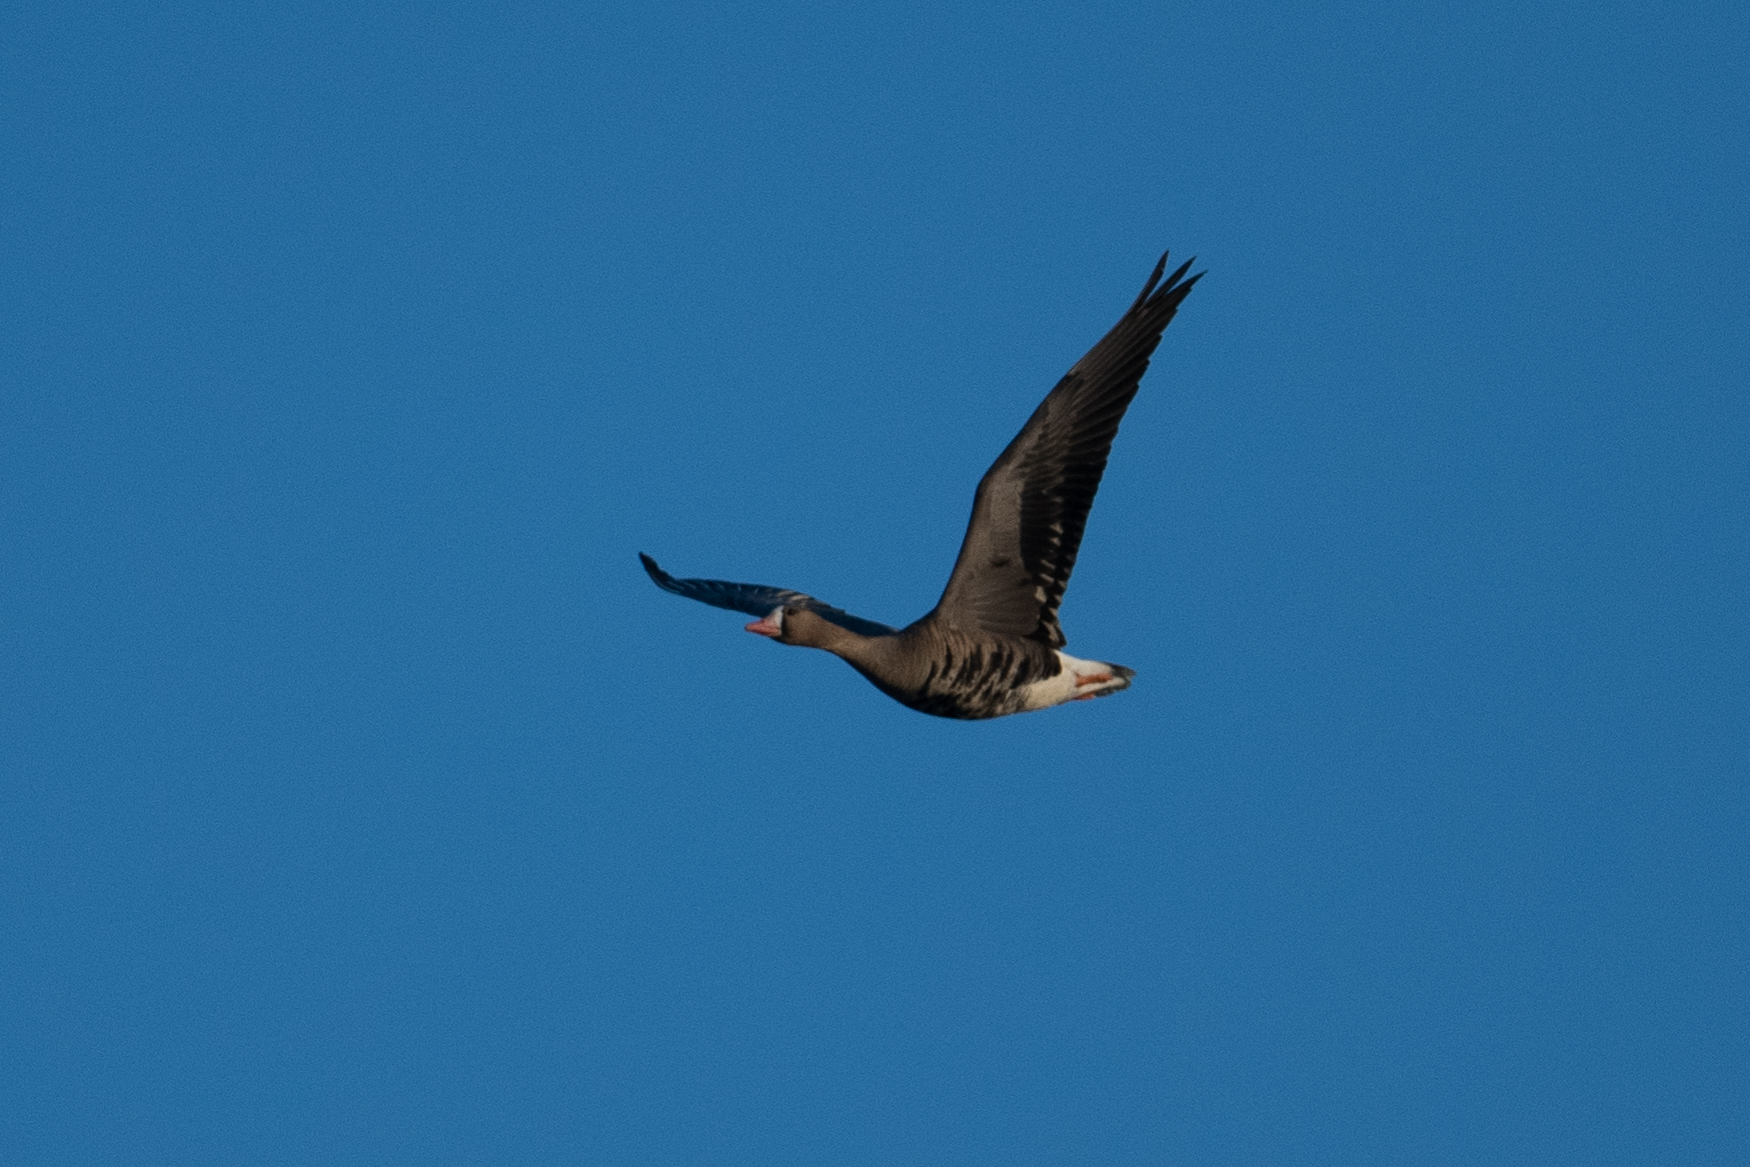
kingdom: Animalia
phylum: Chordata
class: Aves
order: Anseriformes
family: Anatidae
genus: Anser
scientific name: Anser albifrons
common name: Greater white-fronted goose
